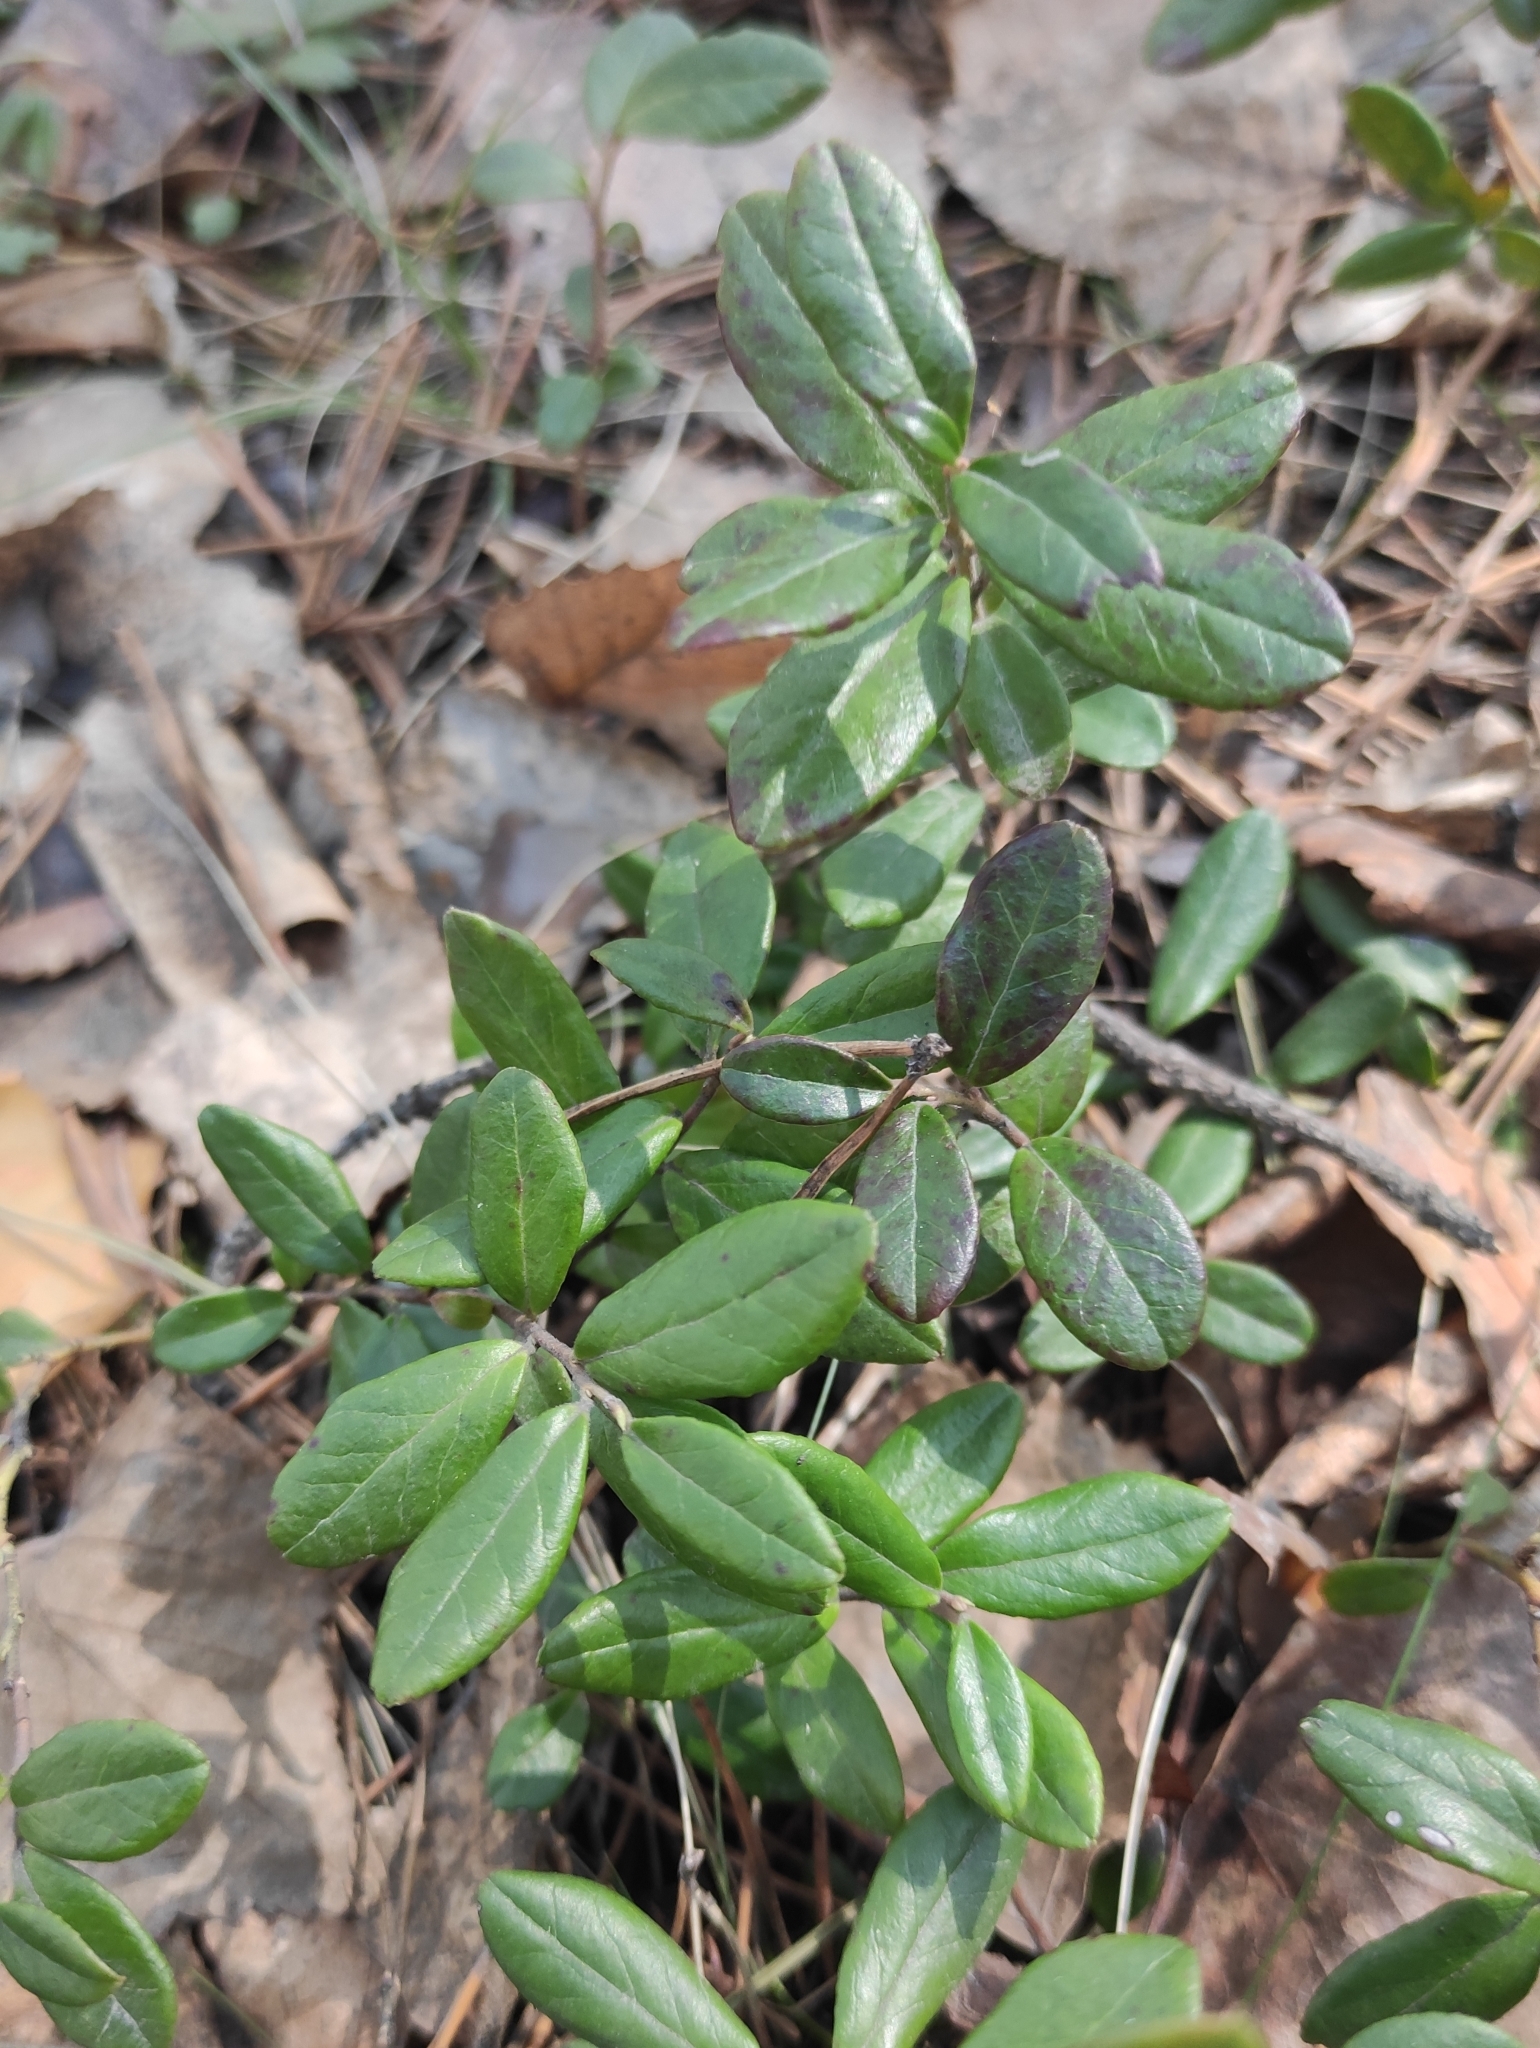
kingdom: Plantae
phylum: Tracheophyta
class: Magnoliopsida
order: Ericales
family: Ericaceae
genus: Vaccinium
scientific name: Vaccinium vitis-idaea
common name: Cowberry
